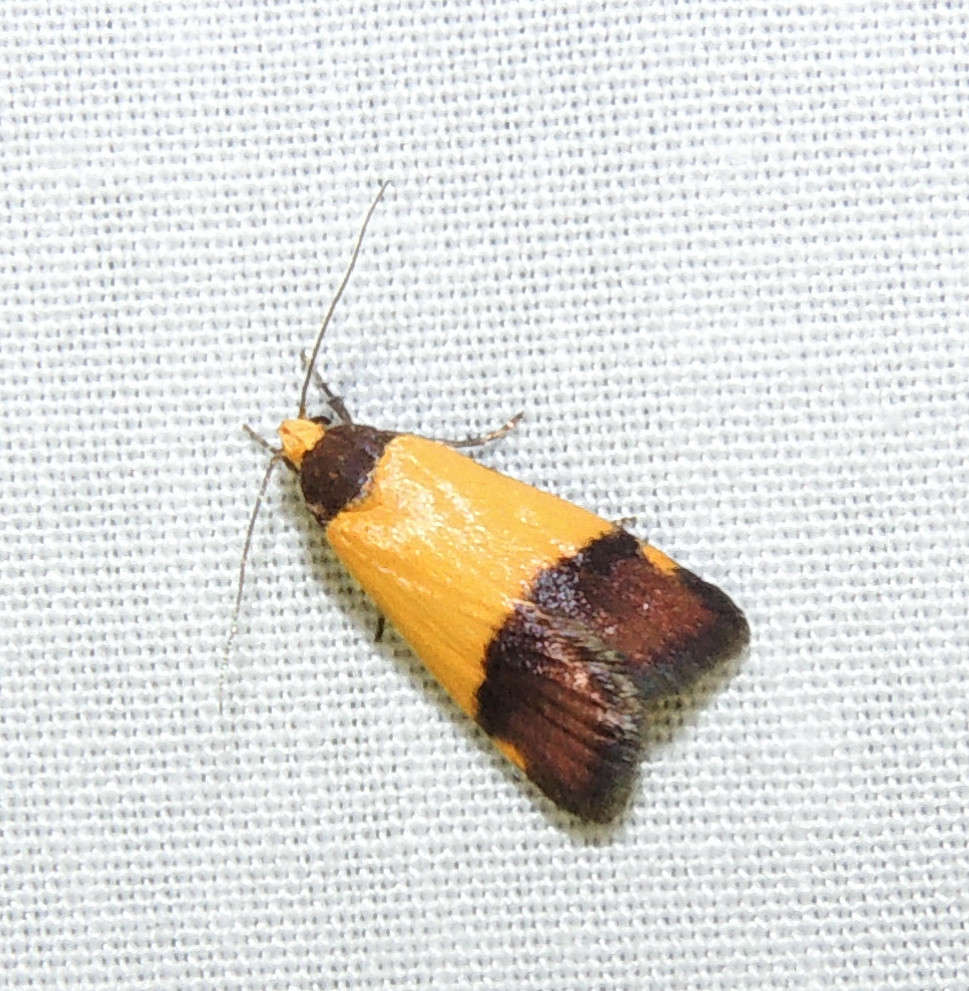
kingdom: Animalia
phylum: Arthropoda
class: Insecta
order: Lepidoptera
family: Oecophoridae
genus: Heteroteucha
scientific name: Heteroteucha kershawi
